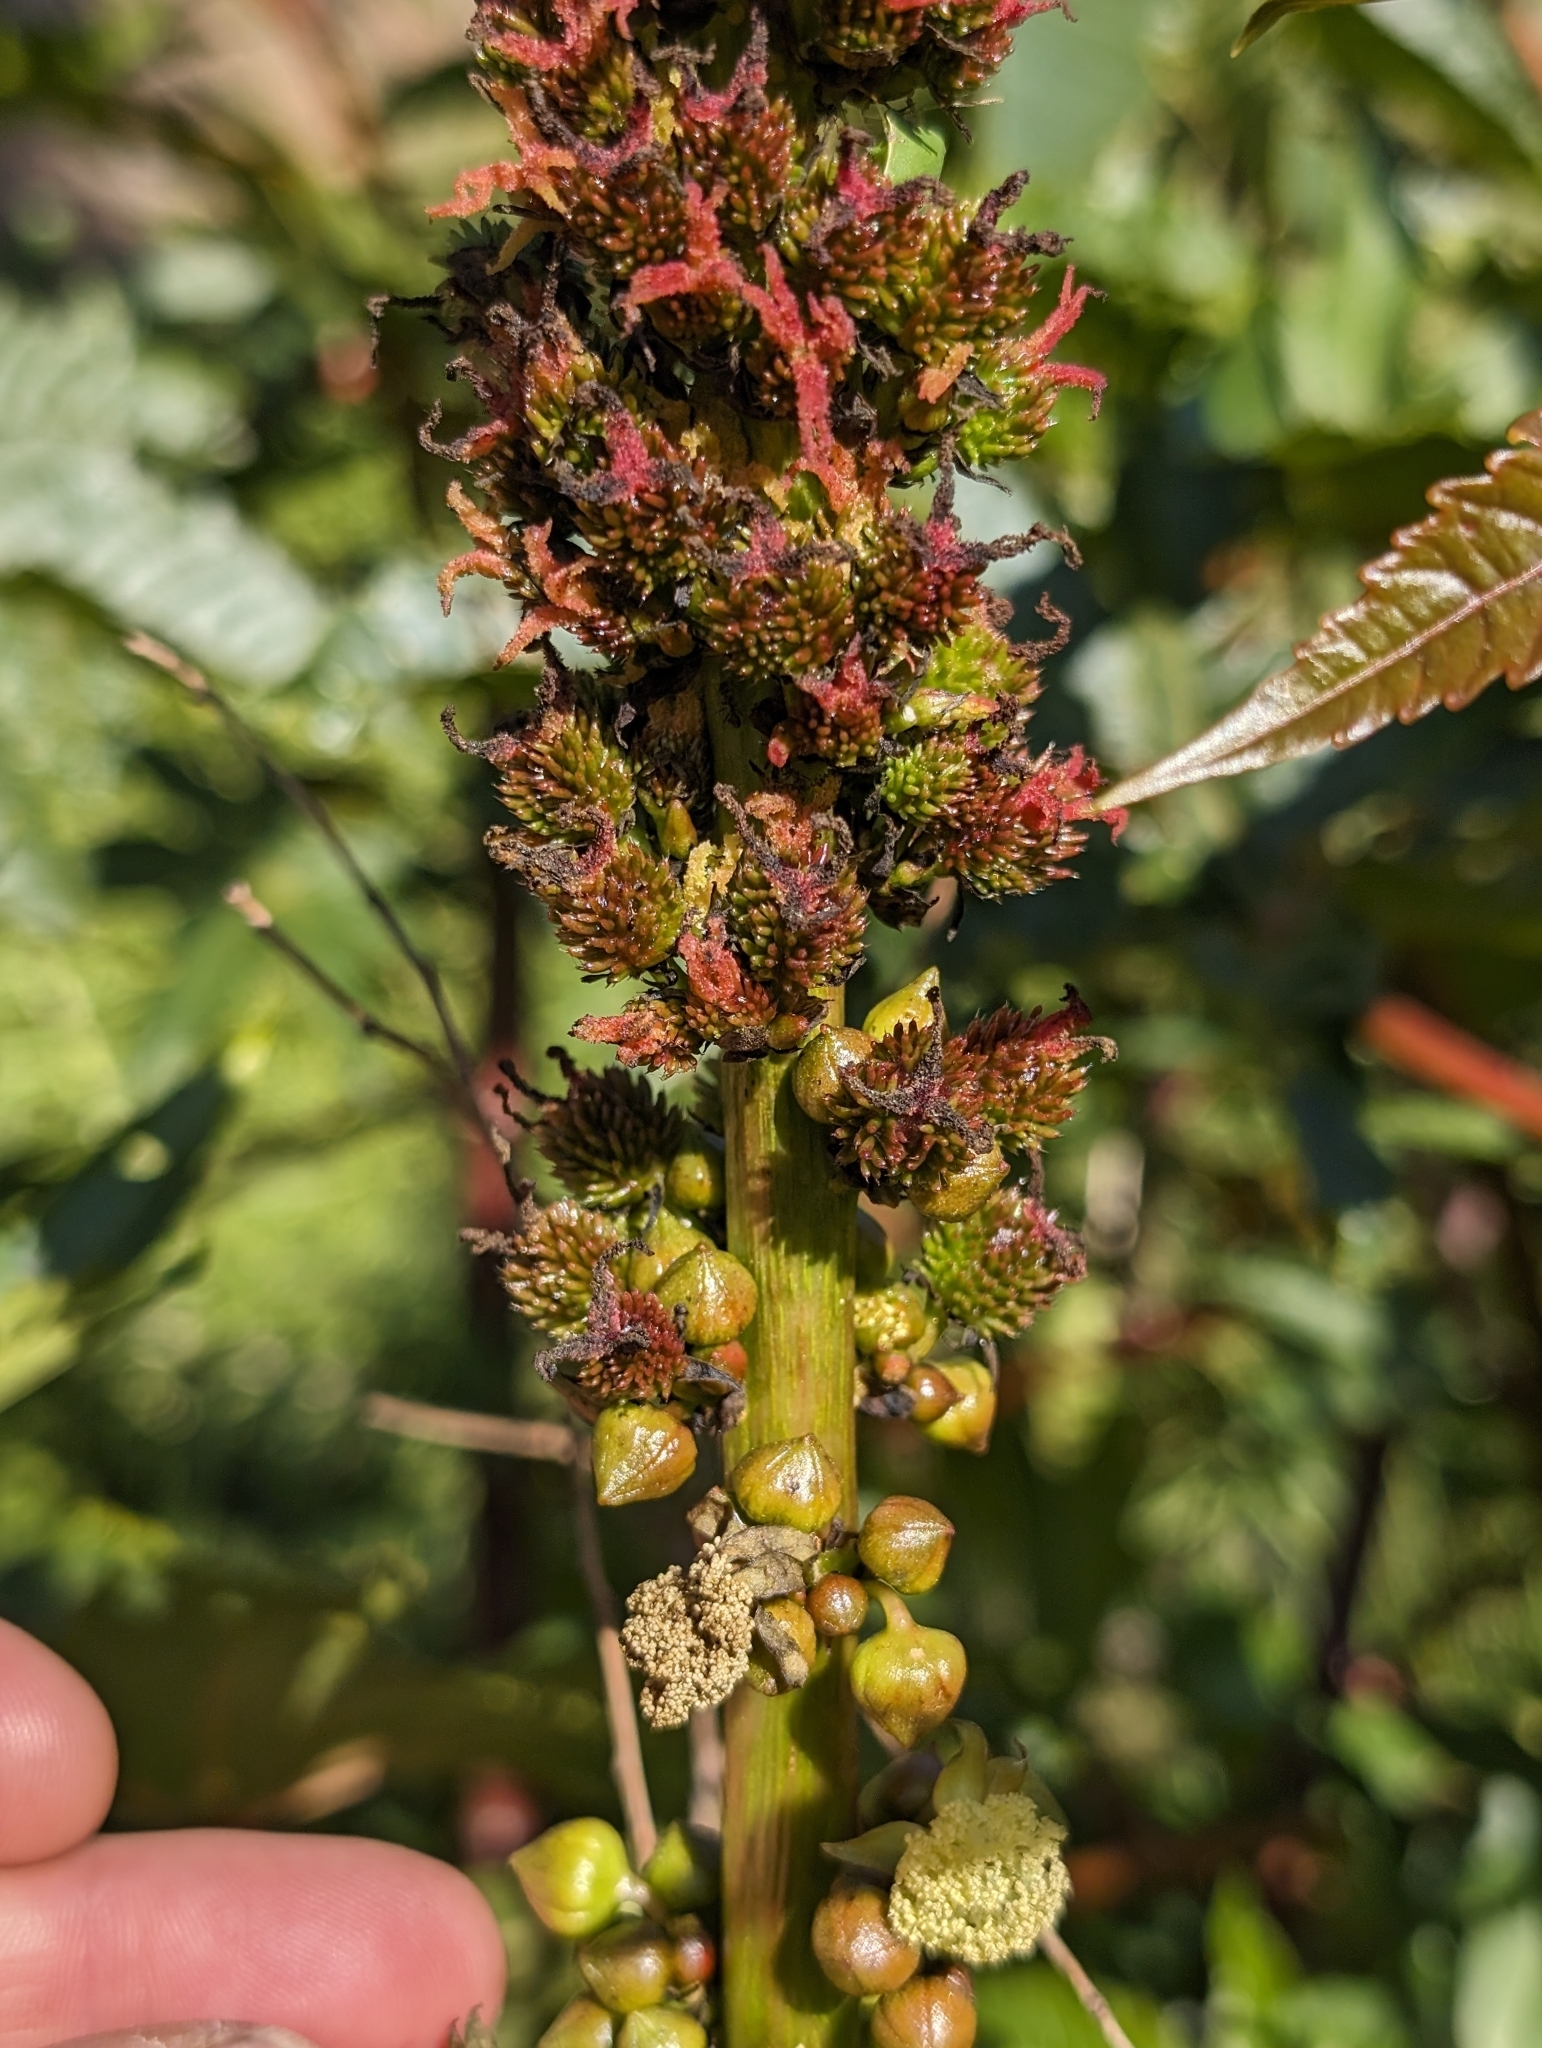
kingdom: Plantae
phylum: Tracheophyta
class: Magnoliopsida
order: Malpighiales
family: Euphorbiaceae
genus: Ricinus
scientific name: Ricinus communis
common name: Castor-oil-plant
